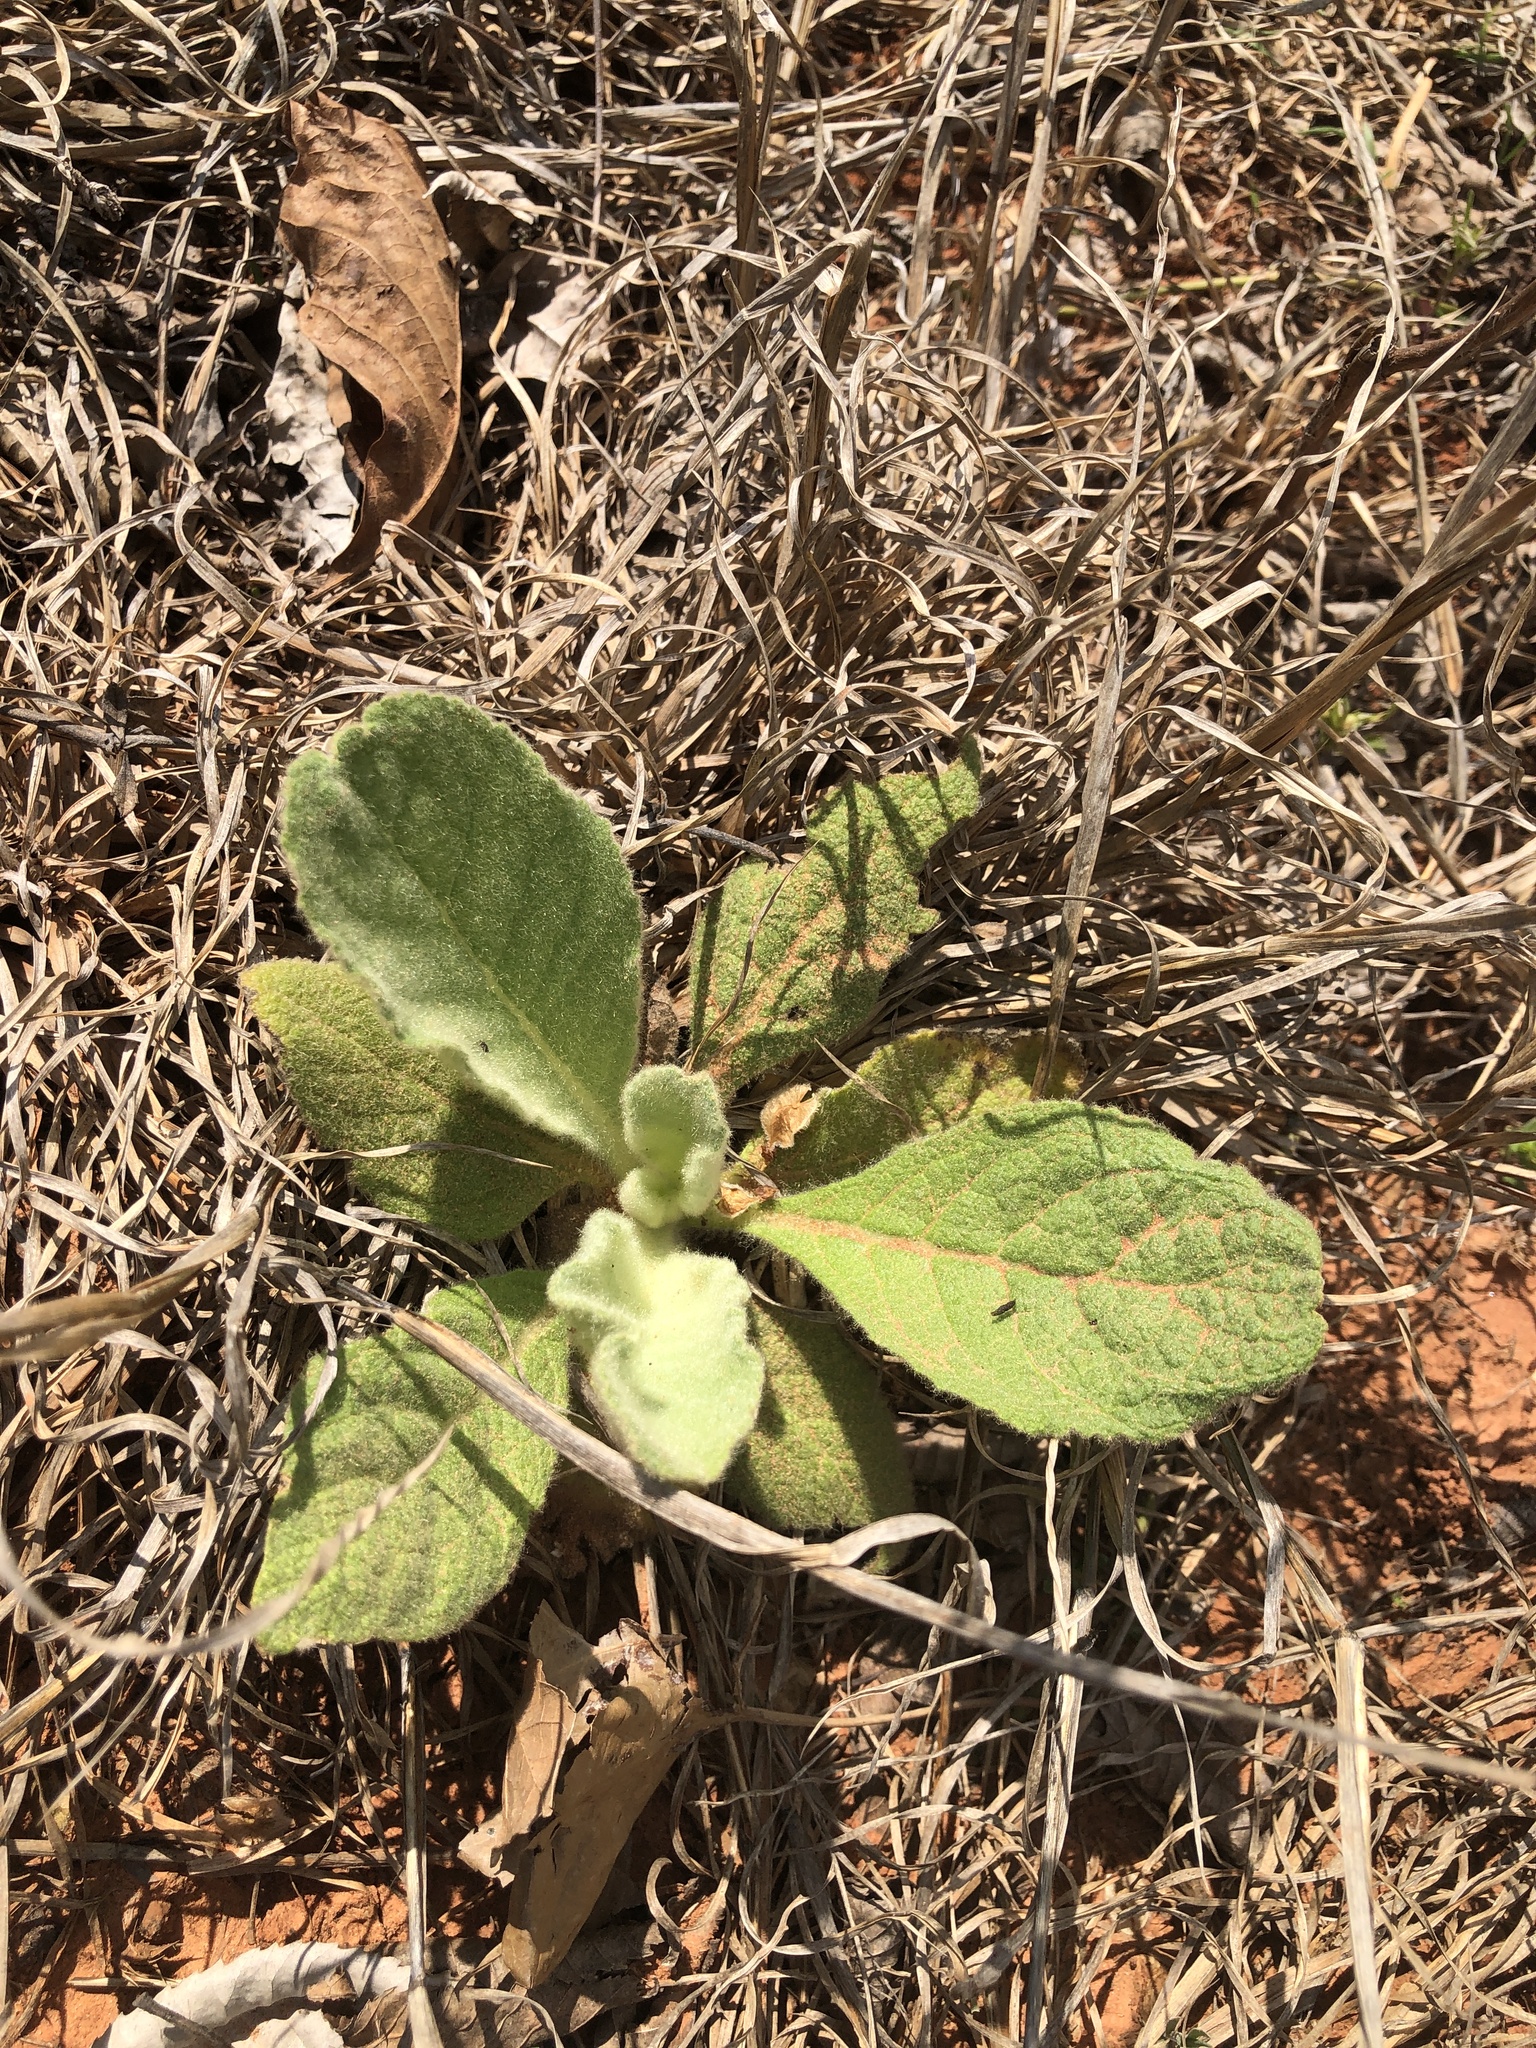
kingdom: Plantae
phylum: Tracheophyta
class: Magnoliopsida
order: Lamiales
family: Scrophulariaceae
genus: Verbascum
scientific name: Verbascum thapsus
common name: Common mullein
